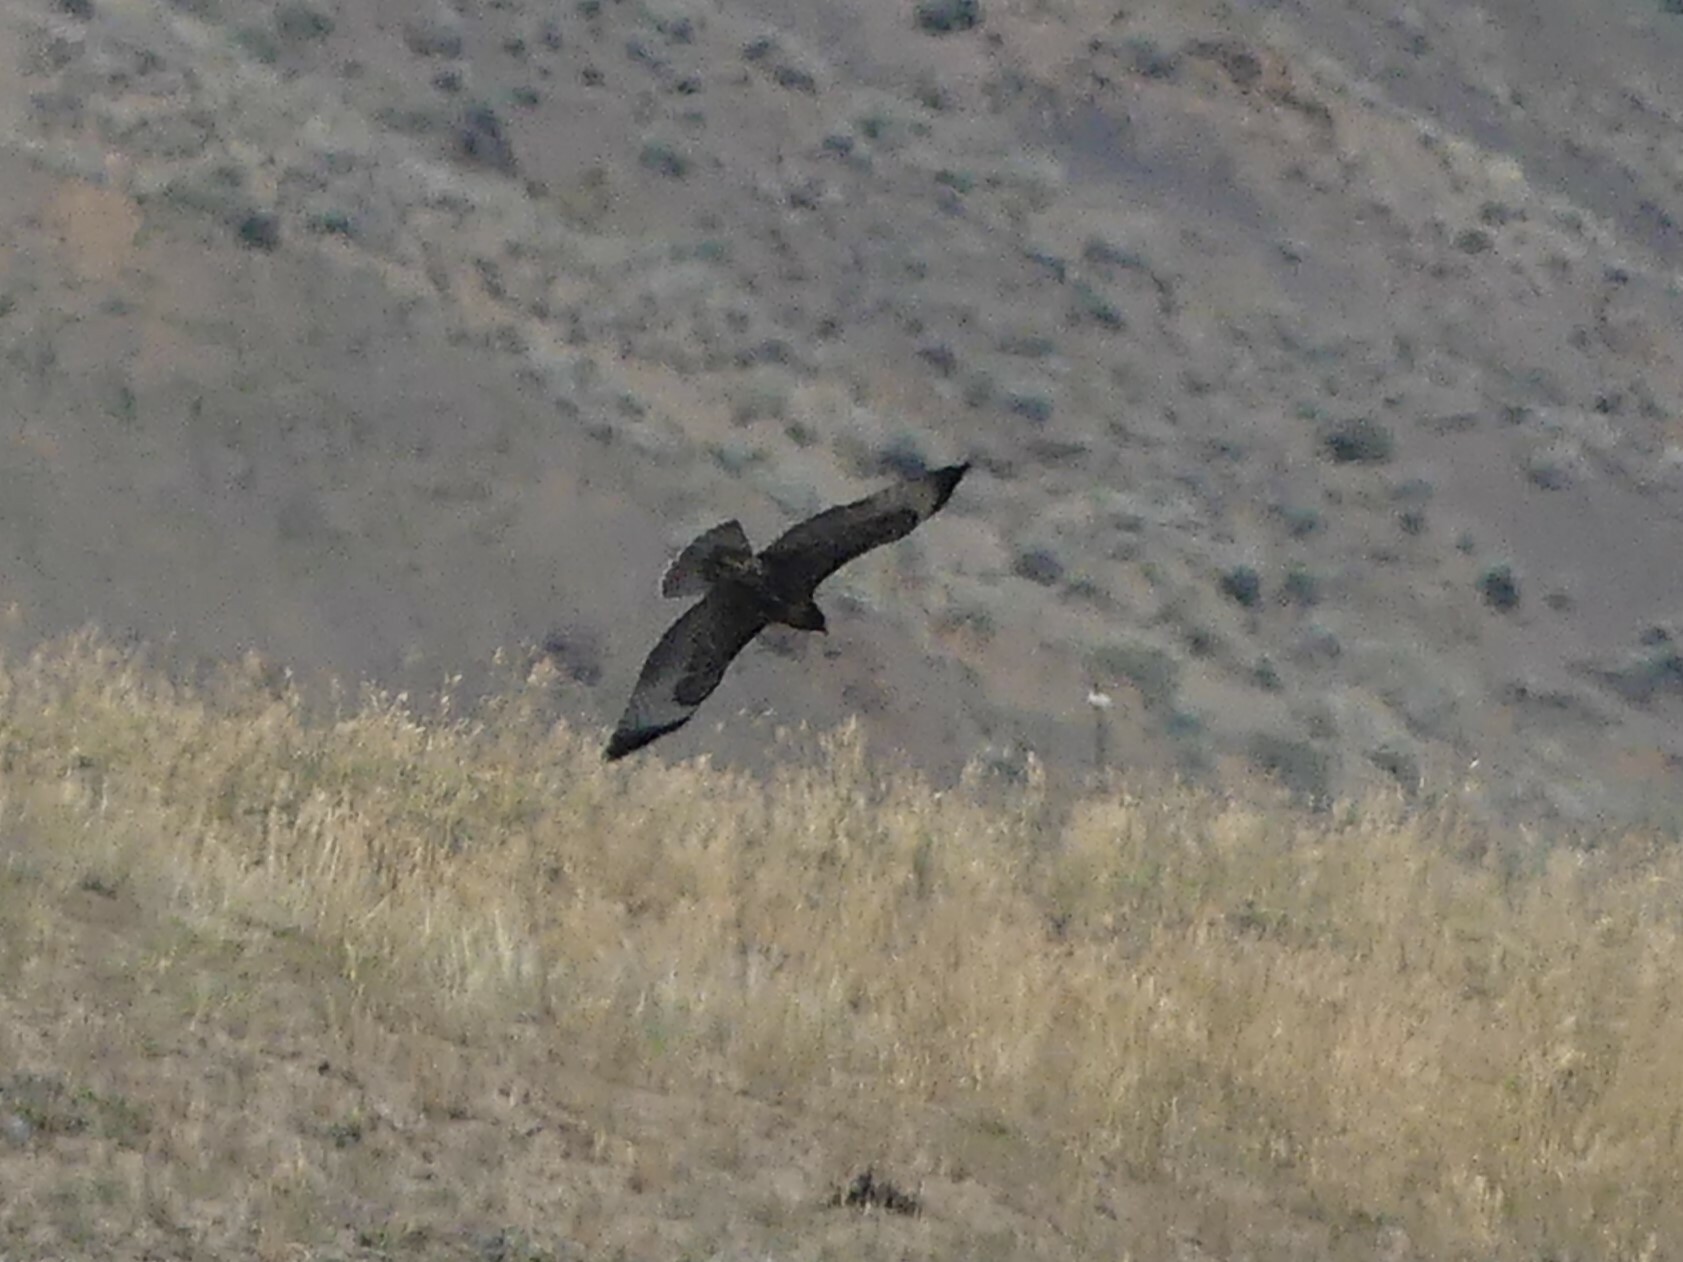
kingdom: Animalia
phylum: Chordata
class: Aves
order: Accipitriformes
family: Accipitridae
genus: Buteo
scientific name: Buteo jamaicensis
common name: Red-tailed hawk
